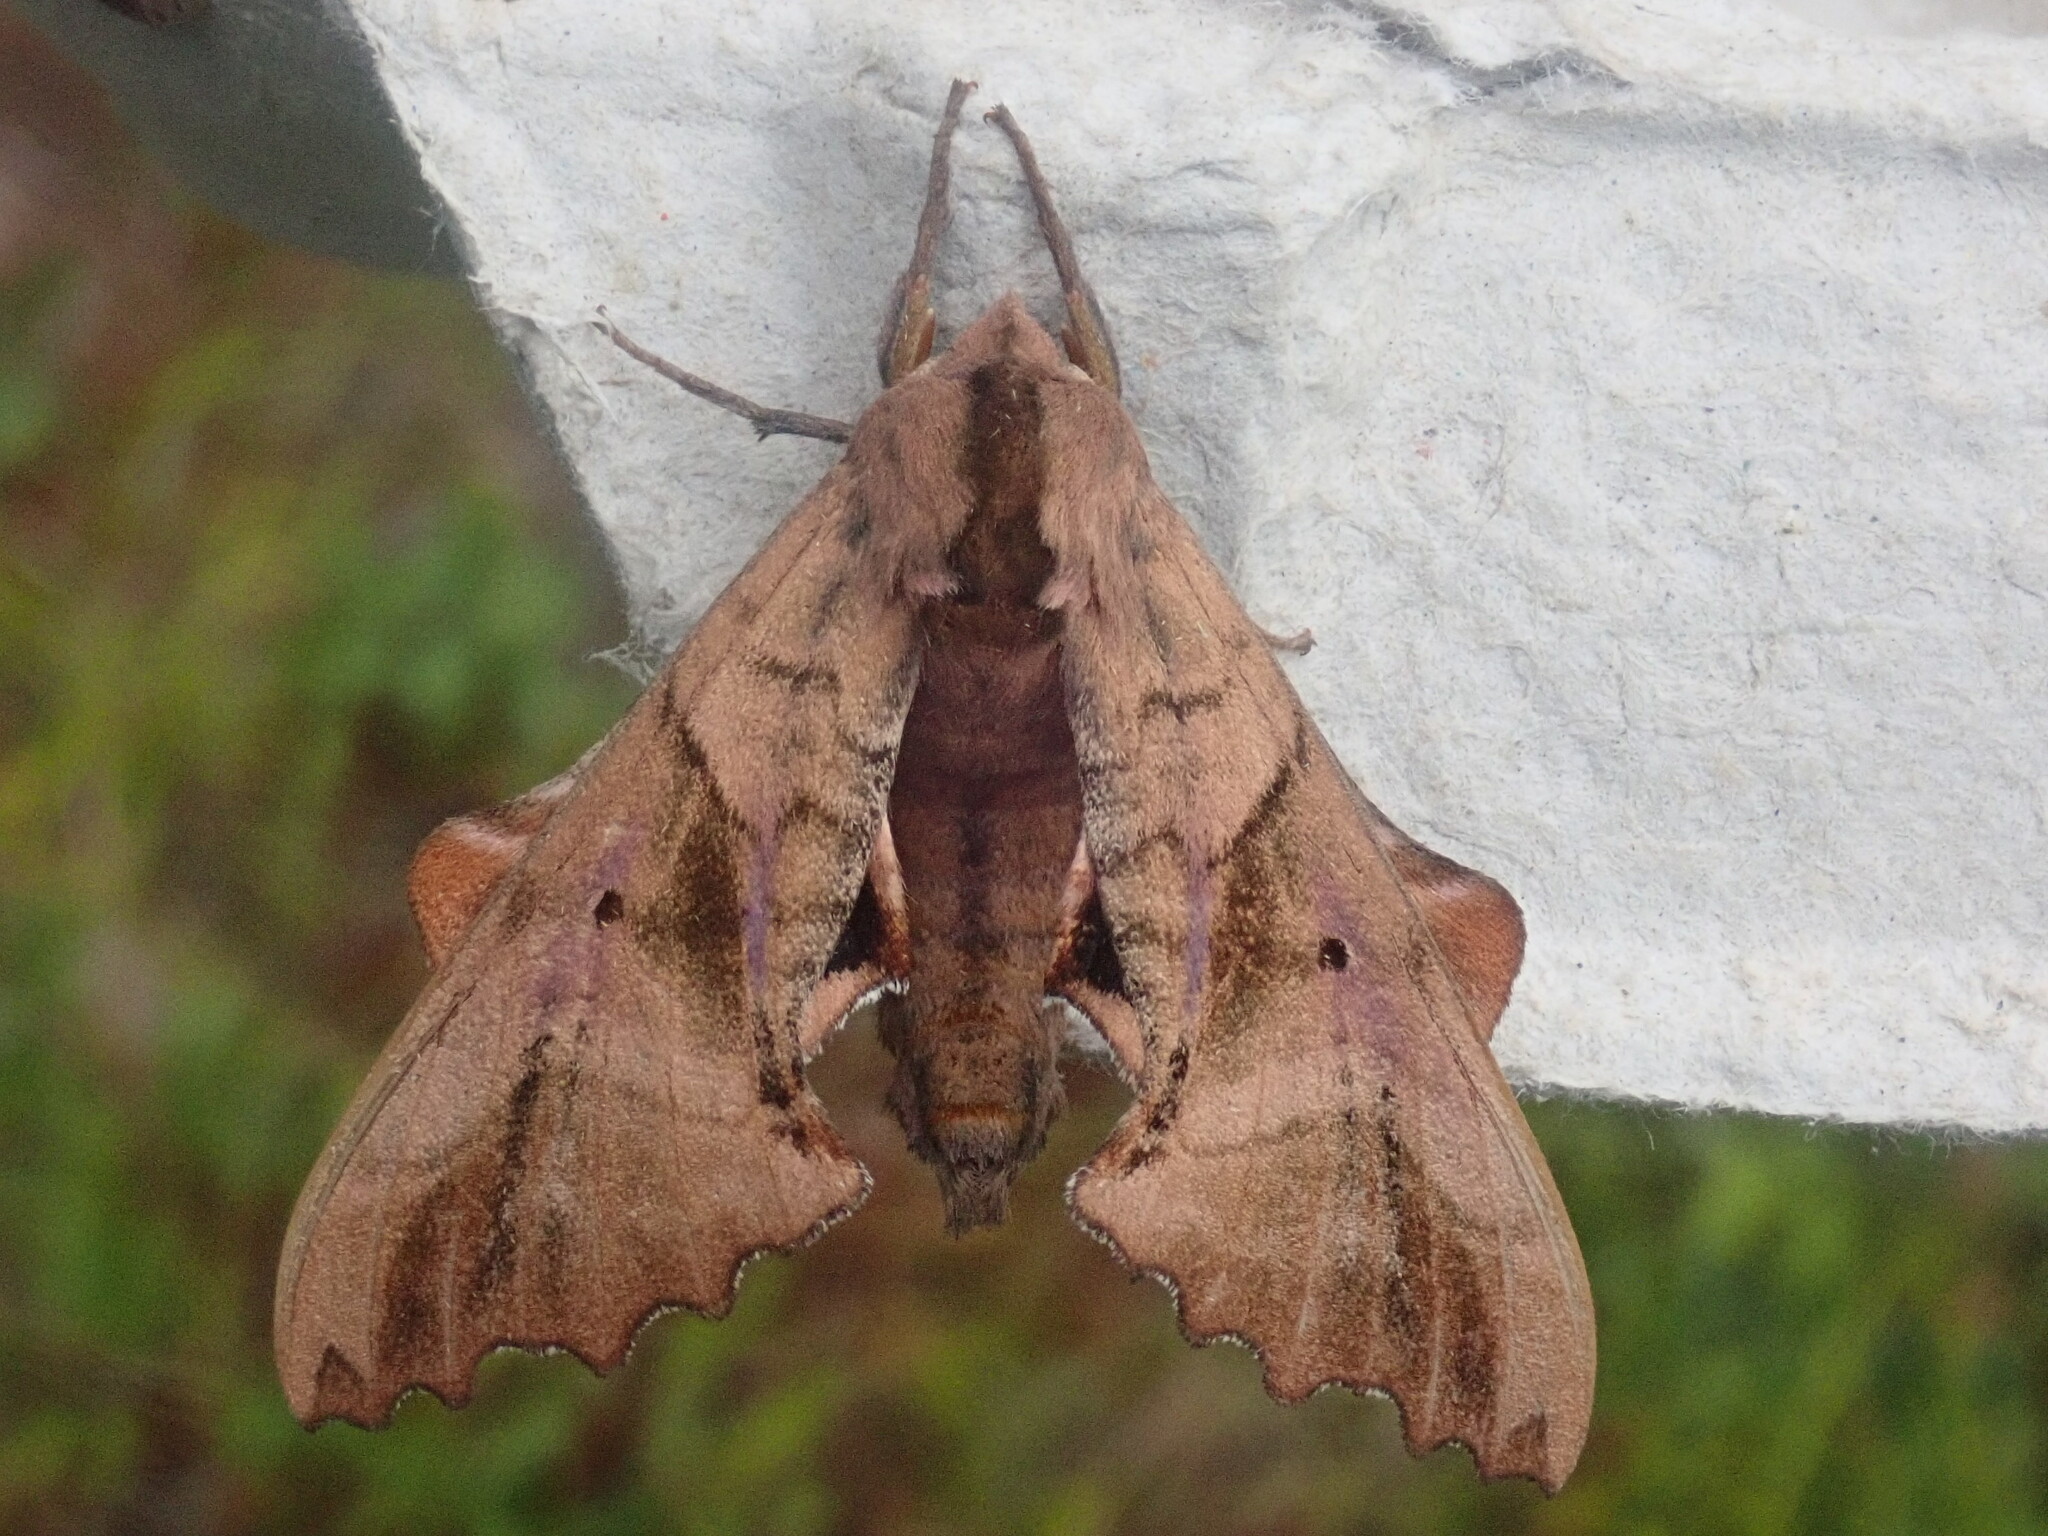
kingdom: Animalia
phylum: Arthropoda
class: Insecta
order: Lepidoptera
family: Sphingidae
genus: Paonias
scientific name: Paonias excaecata
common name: Blind-eyed sphinx
